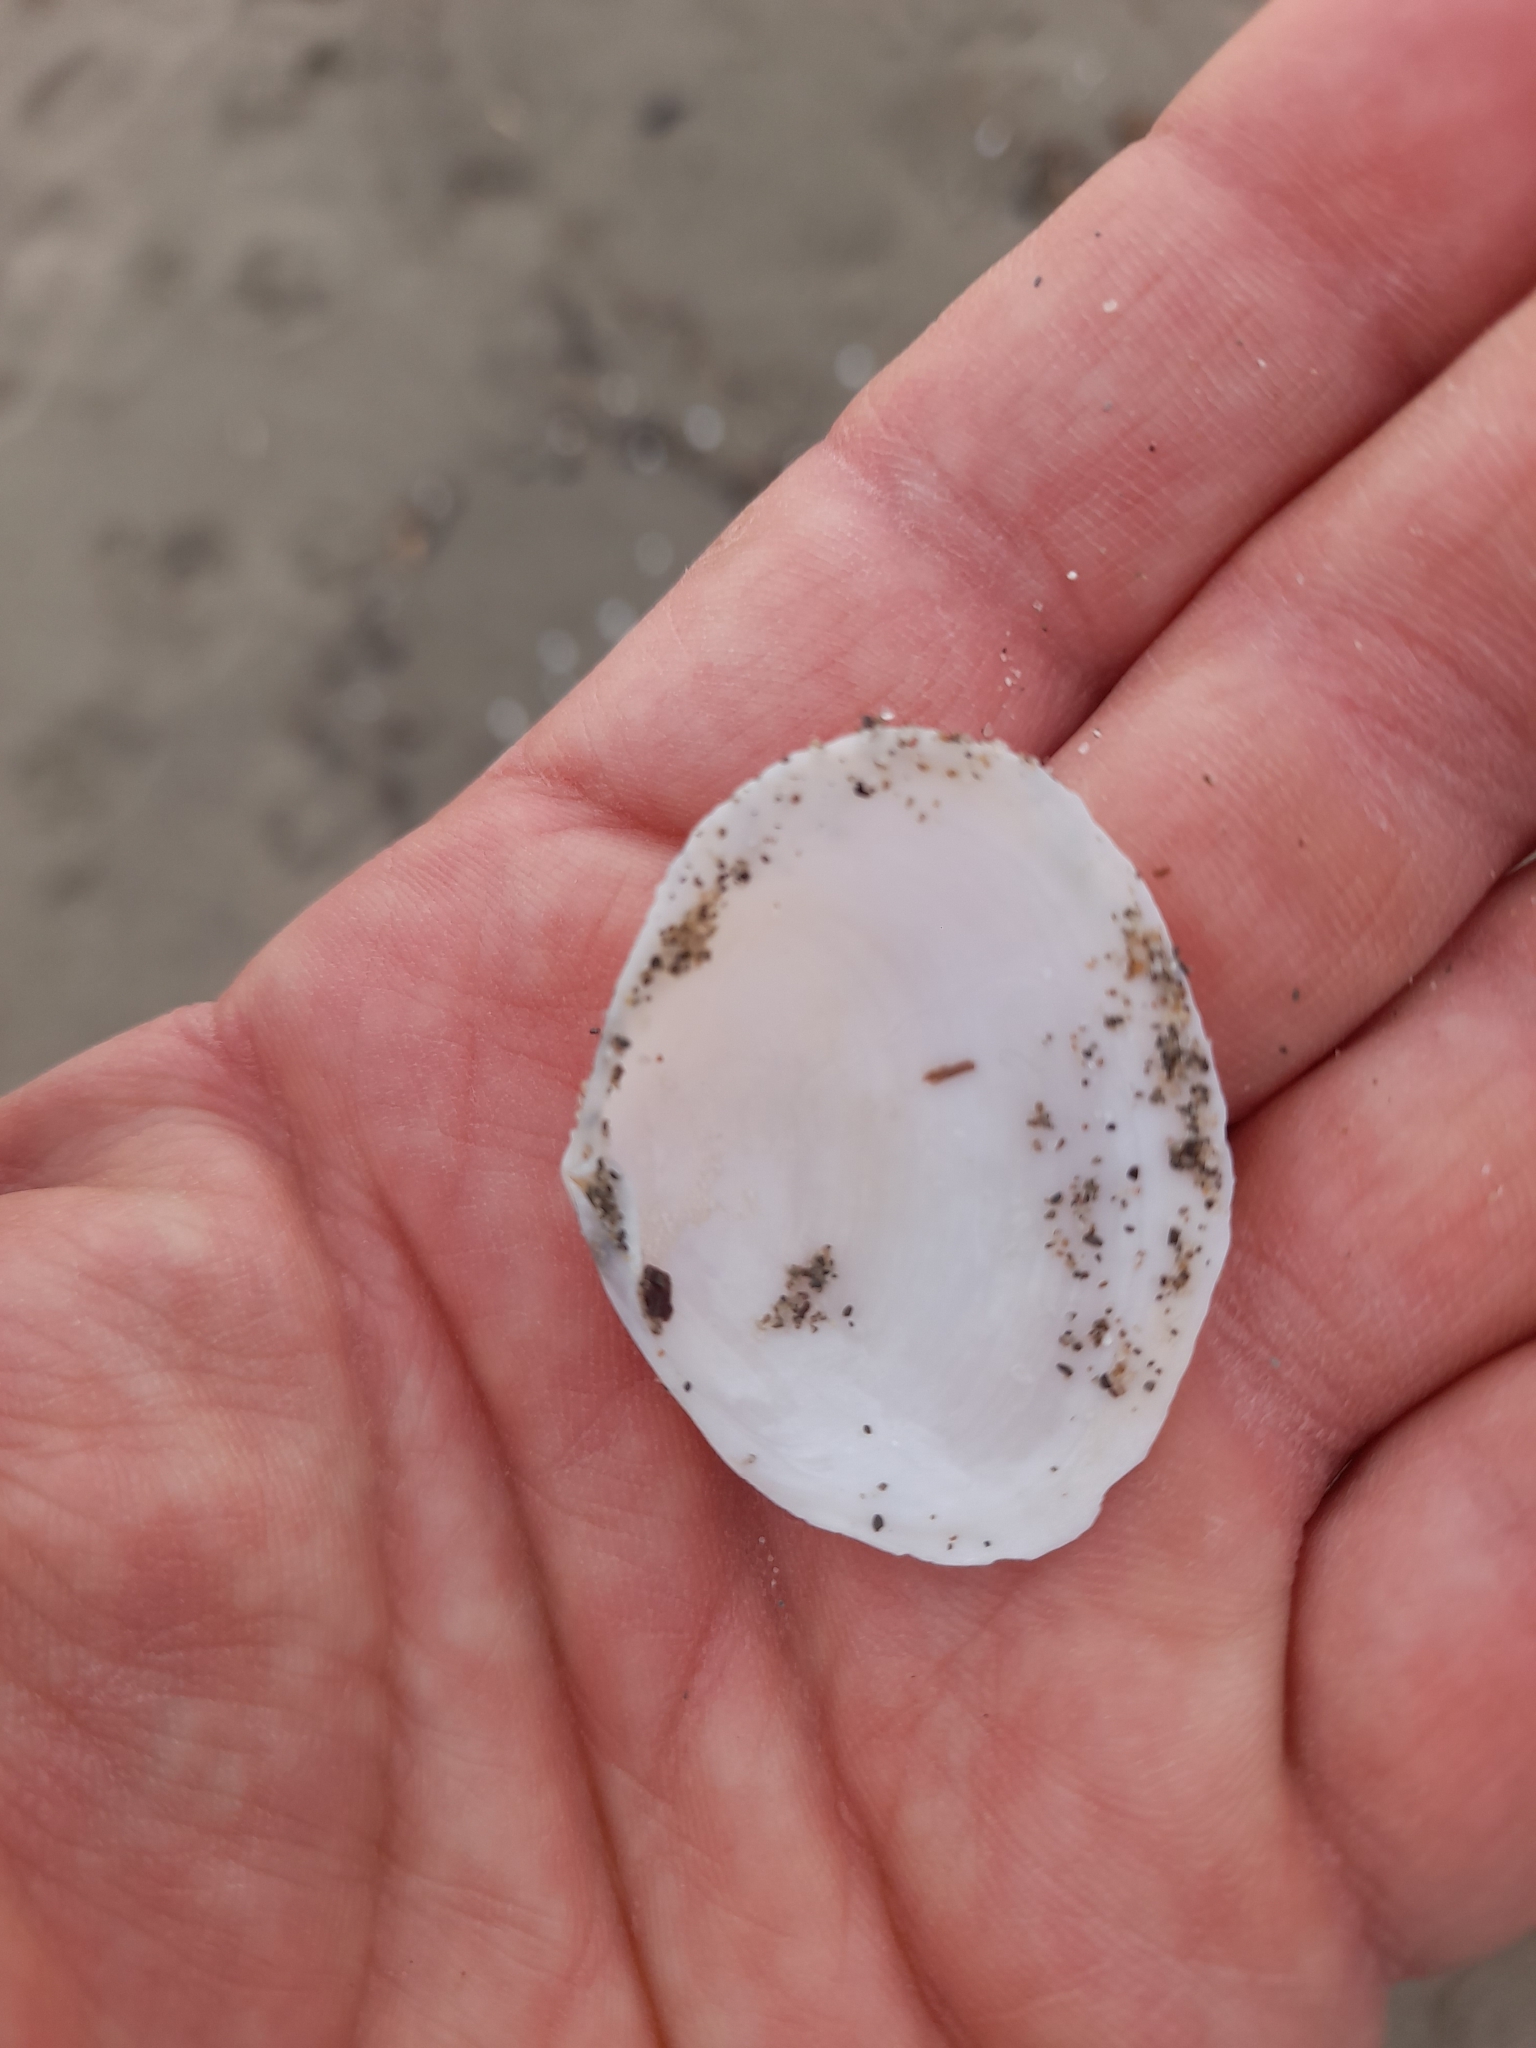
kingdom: Animalia
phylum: Mollusca
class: Bivalvia
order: Cardiida
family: Semelidae
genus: Scrobicularia
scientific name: Scrobicularia plana
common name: Peppery furrow shell
